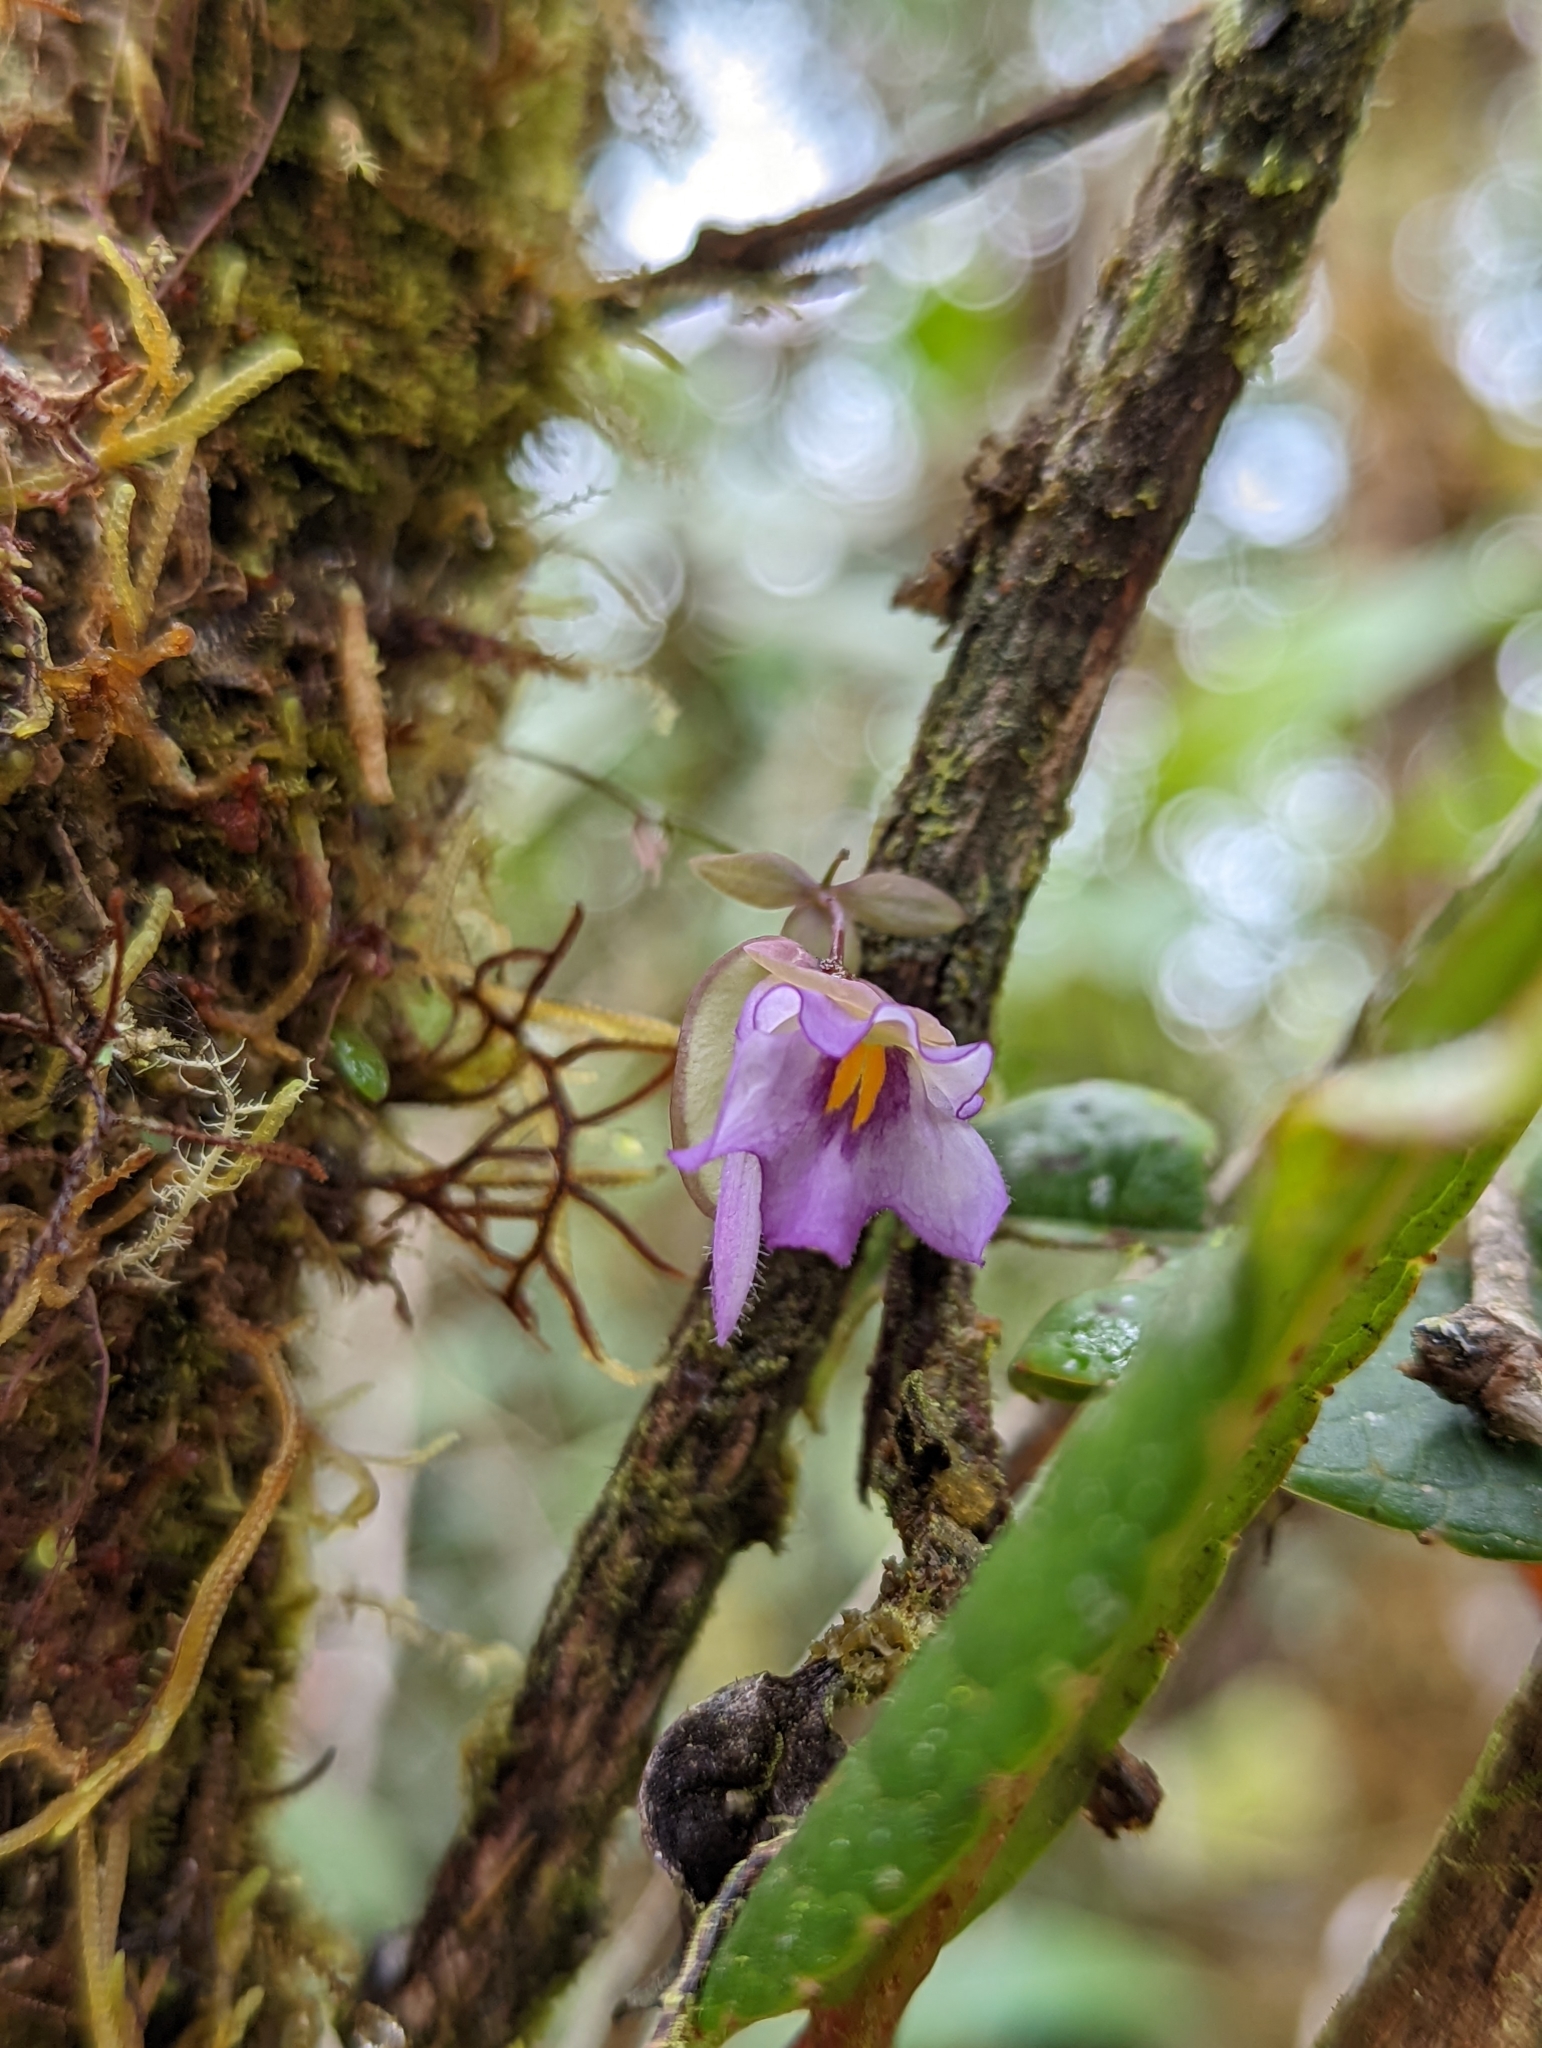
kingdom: Plantae
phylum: Tracheophyta
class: Magnoliopsida
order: Lamiales
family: Lentibulariaceae
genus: Utricularia
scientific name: Utricularia jamesoniana
